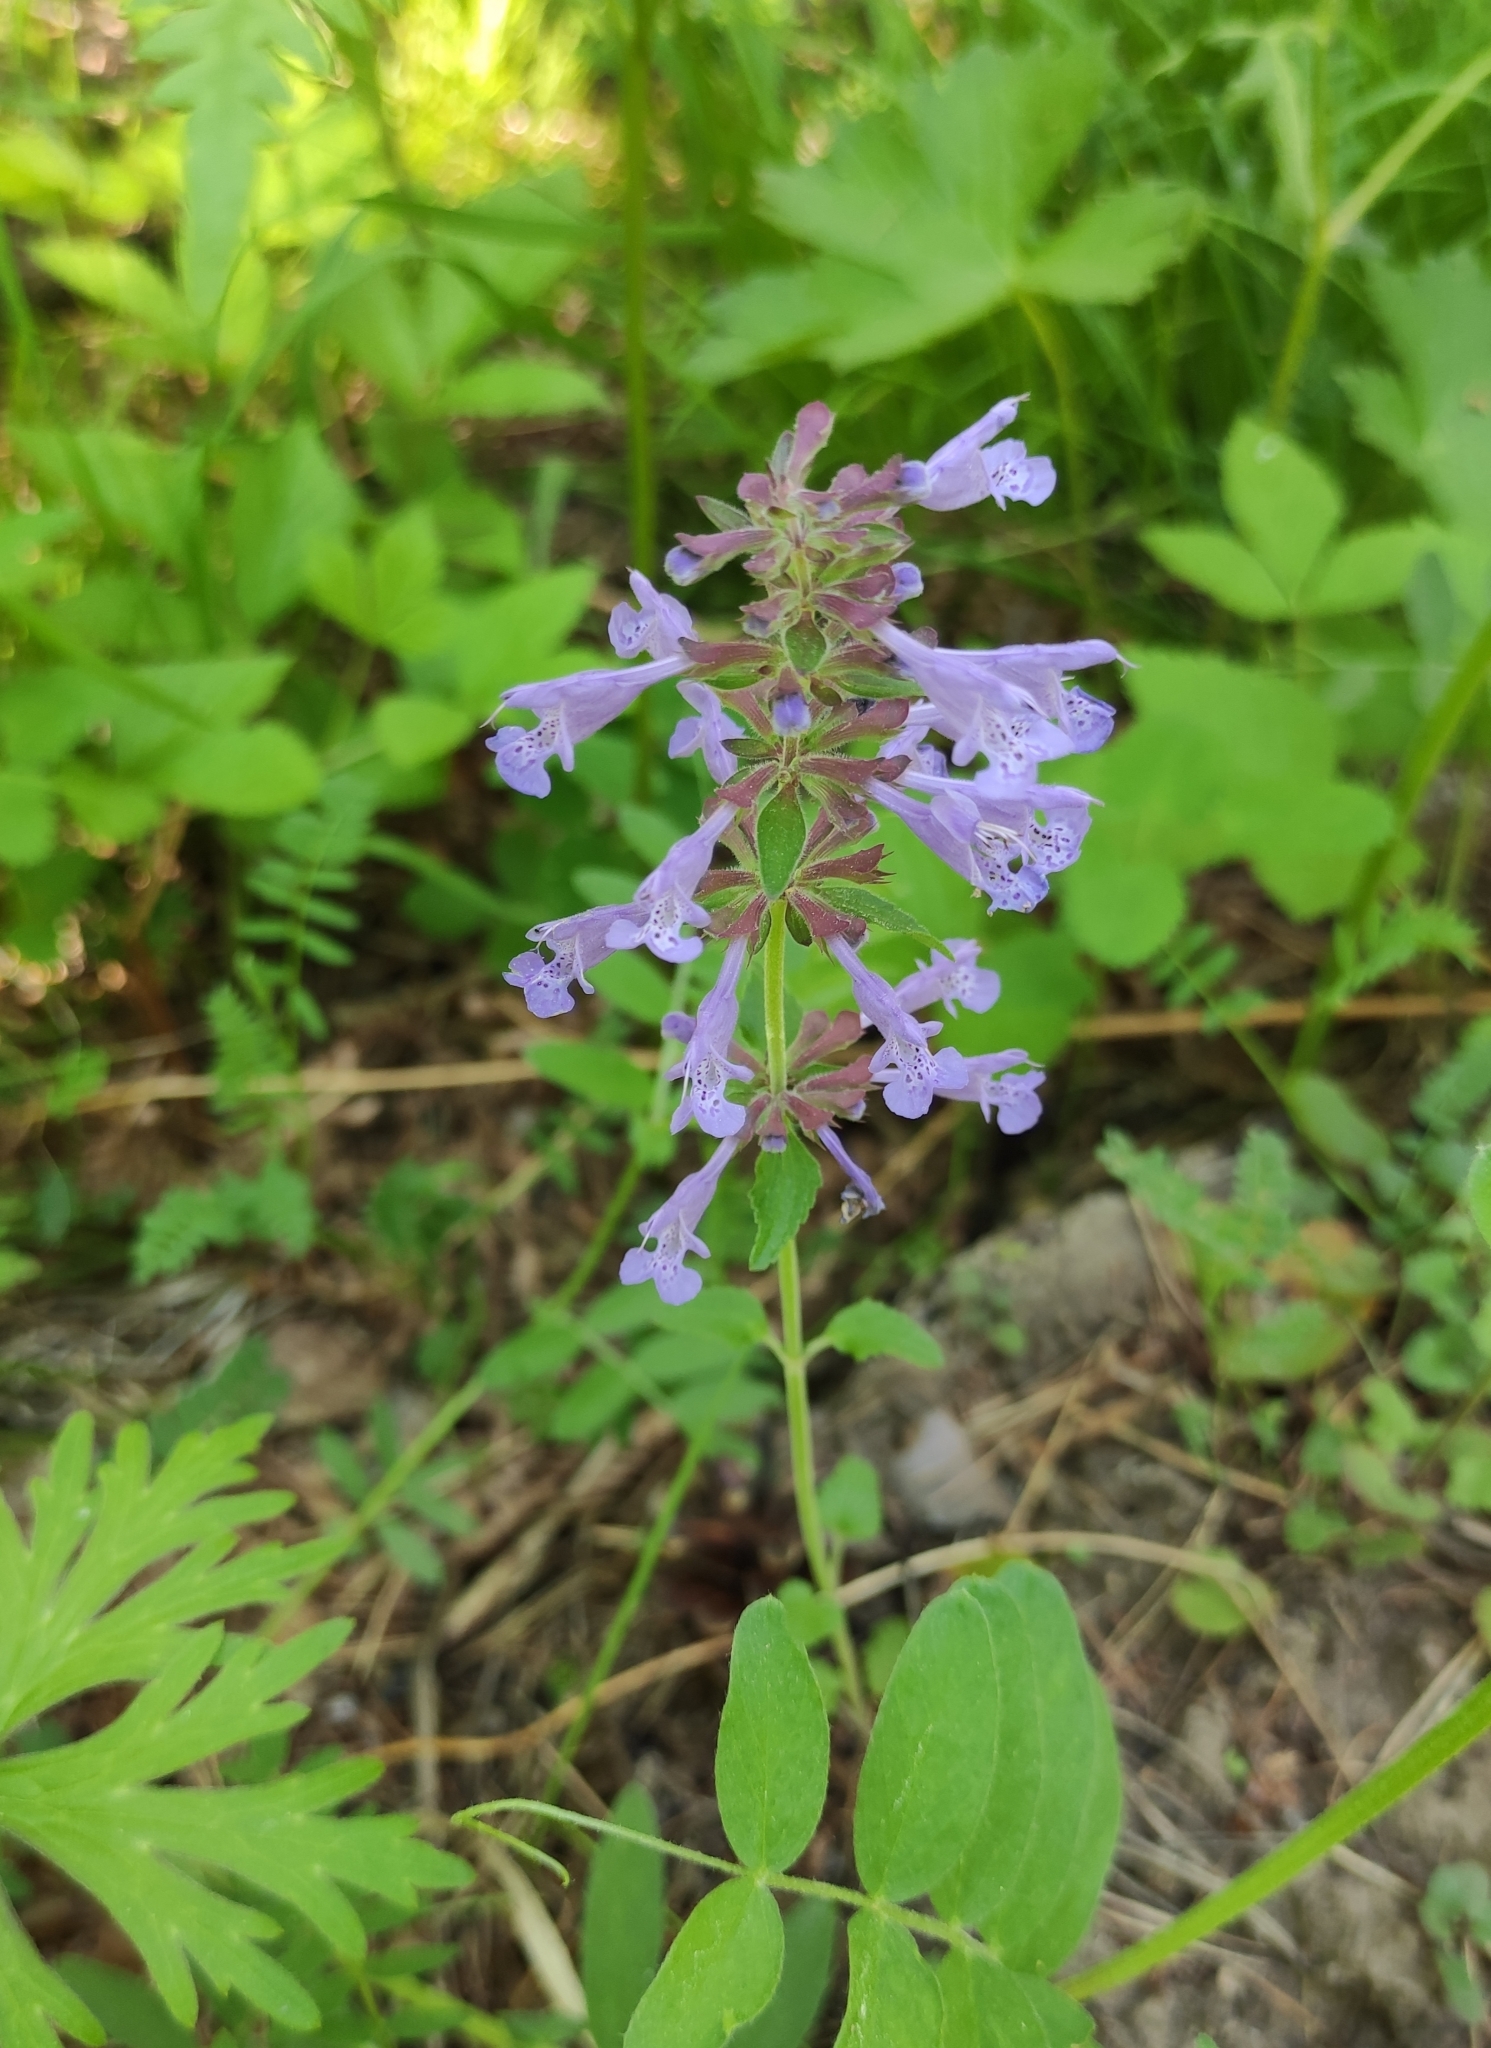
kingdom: Plantae
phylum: Tracheophyta
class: Magnoliopsida
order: Lamiales
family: Lamiaceae
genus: Dracocephalum
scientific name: Dracocephalum nutans
